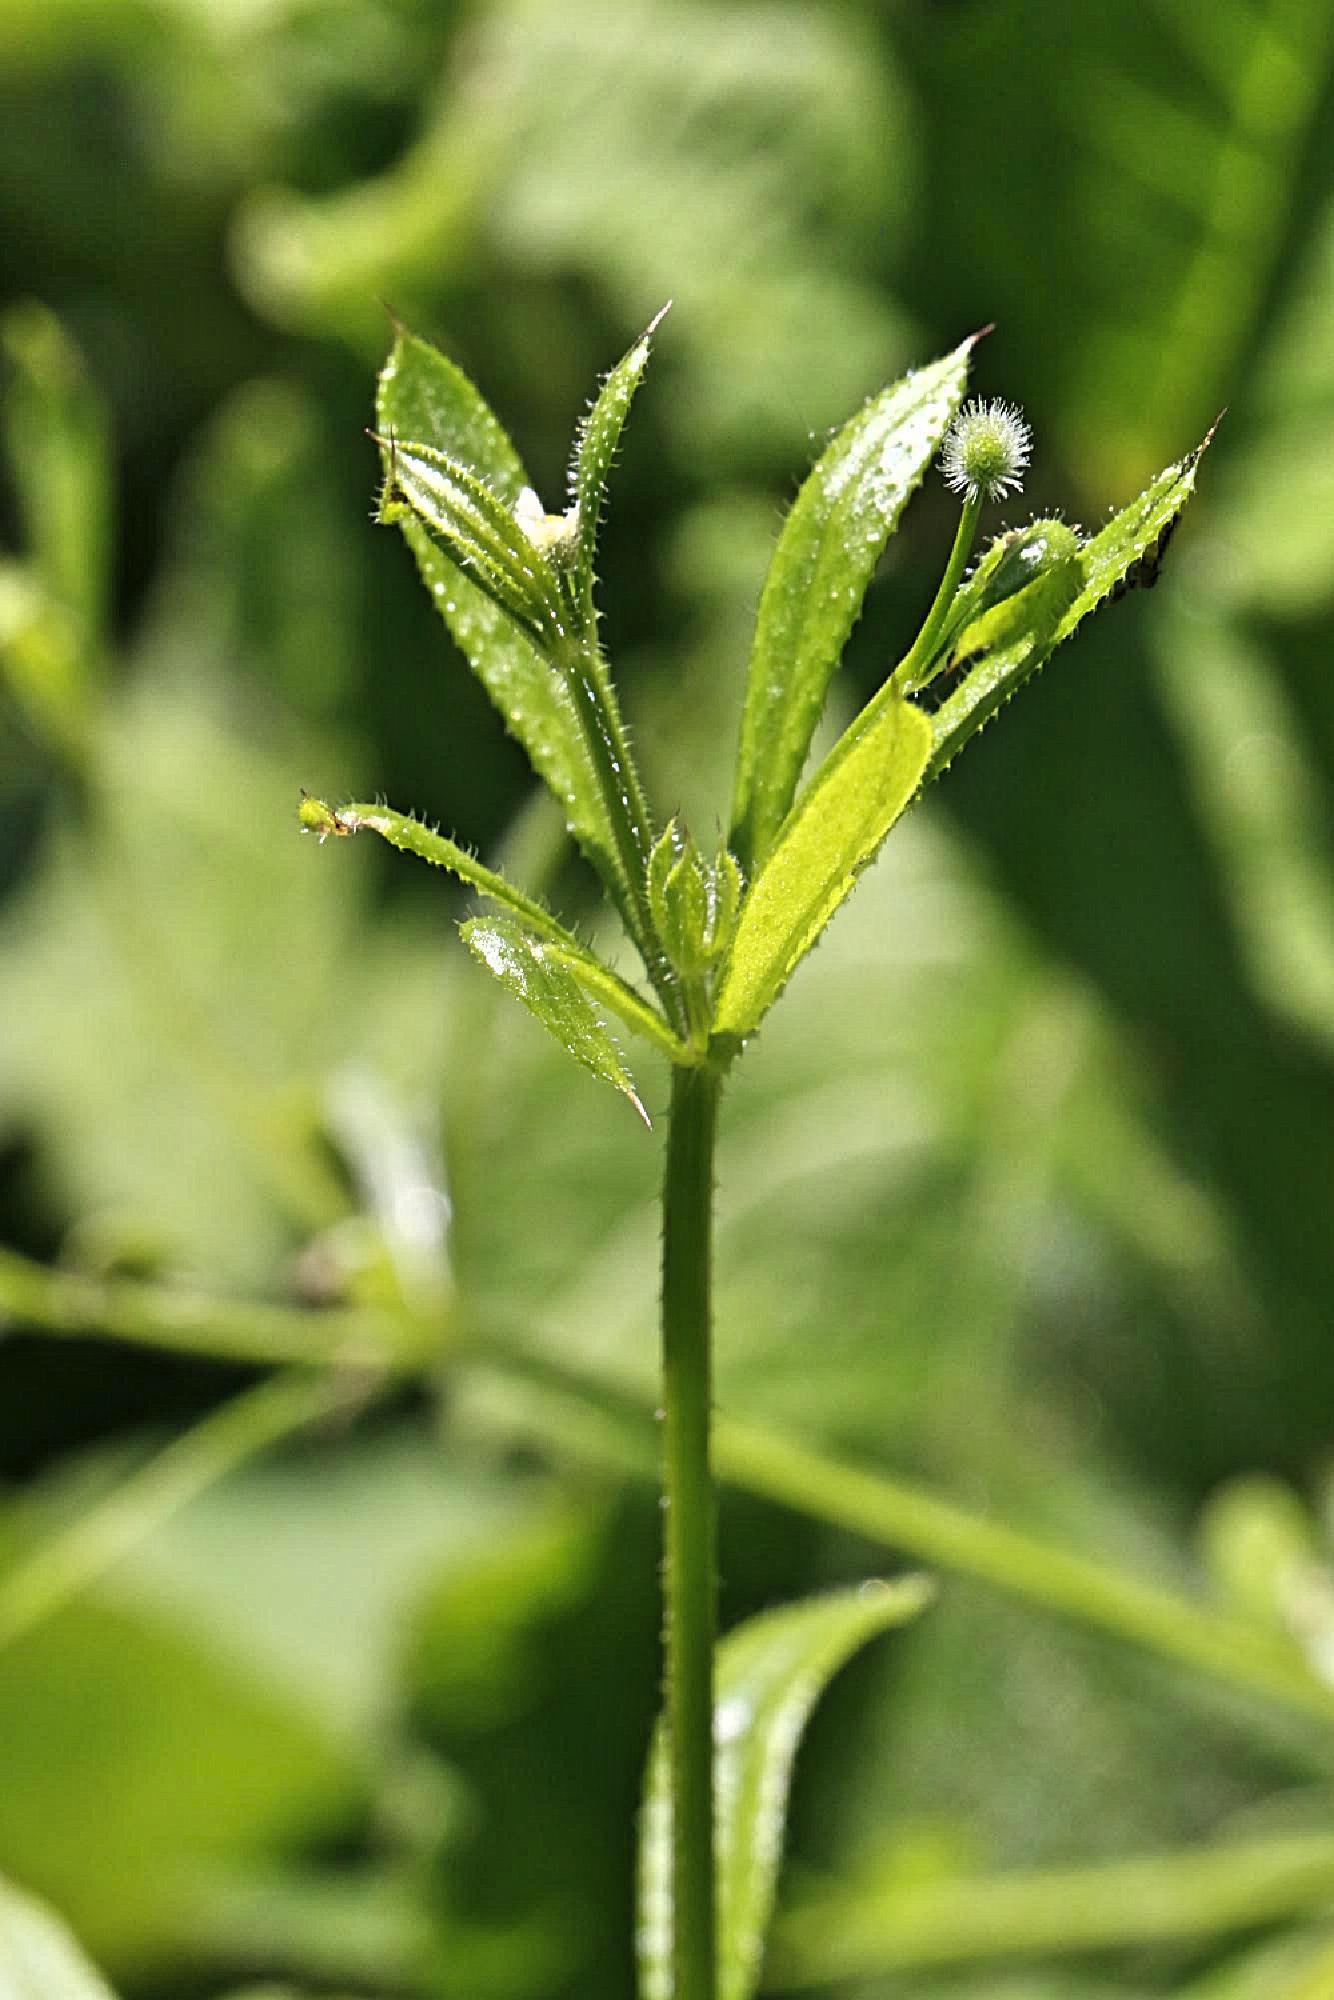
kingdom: Plantae
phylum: Tracheophyta
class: Magnoliopsida
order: Gentianales
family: Rubiaceae
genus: Galium
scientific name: Galium aparine
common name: Cleavers
